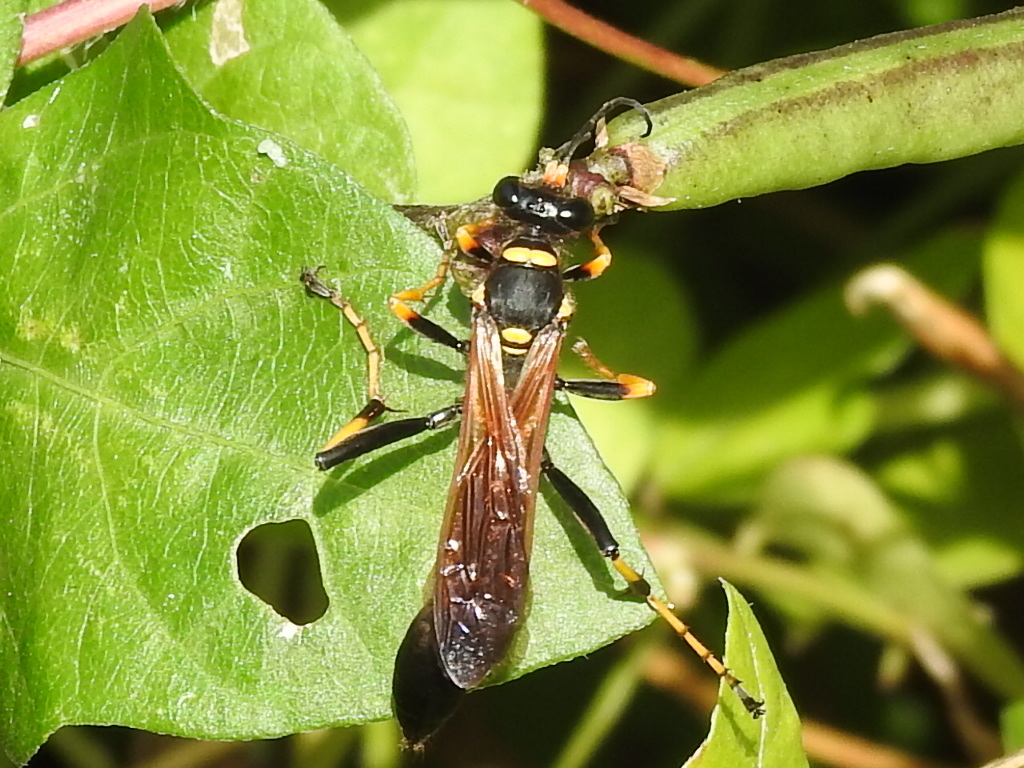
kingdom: Animalia
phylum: Arthropoda
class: Insecta
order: Hymenoptera
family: Sphecidae
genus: Sceliphron
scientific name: Sceliphron caementarium
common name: Mud dauber
